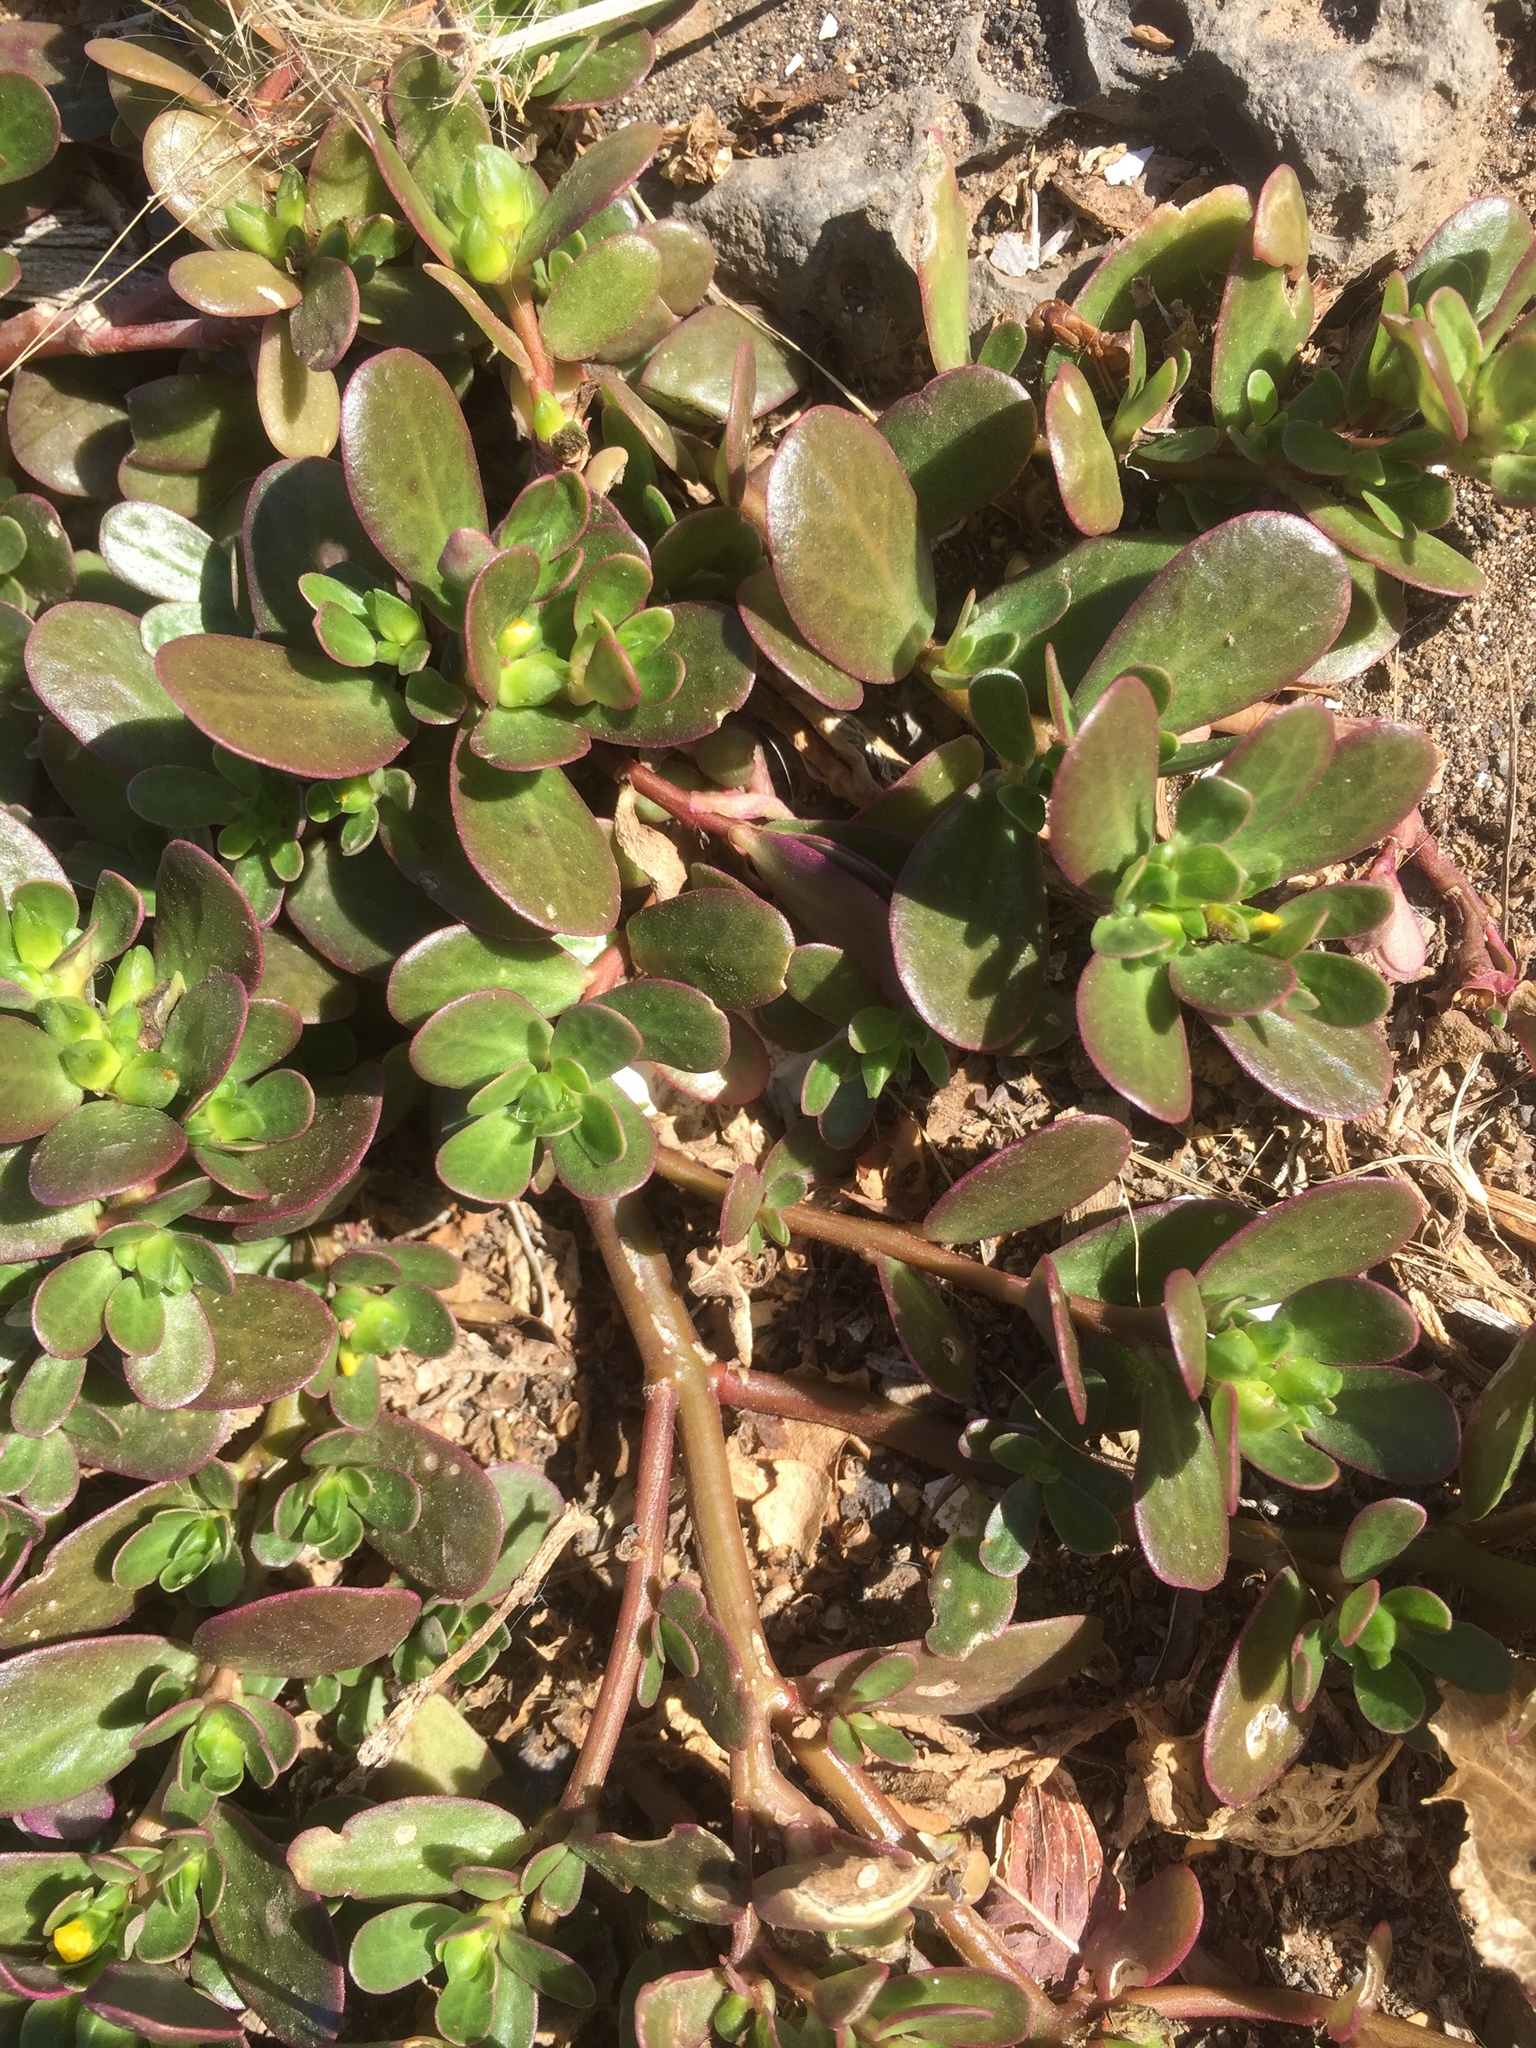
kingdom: Plantae
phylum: Tracheophyta
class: Magnoliopsida
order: Caryophyllales
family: Portulacaceae
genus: Portulaca
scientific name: Portulaca oleracea
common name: Common purslane
